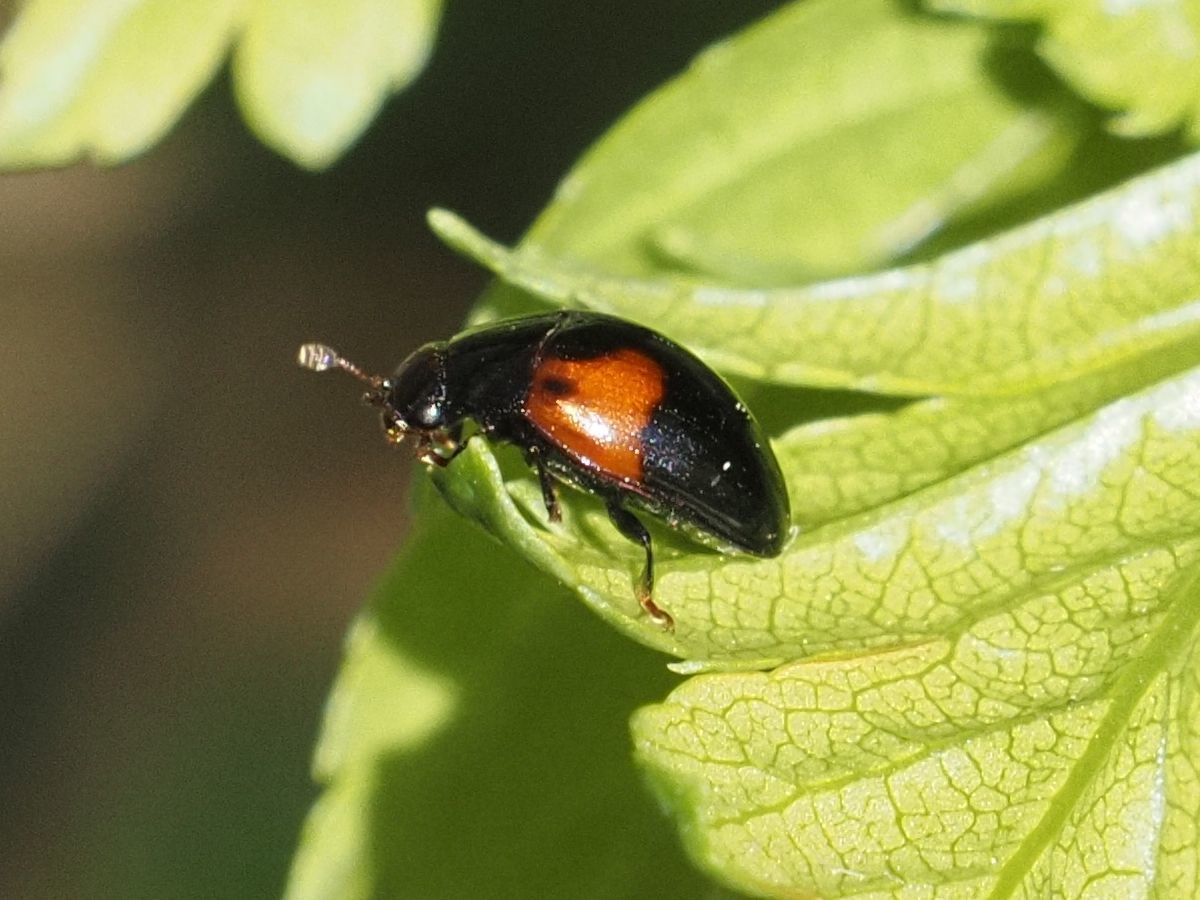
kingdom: Animalia
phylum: Arthropoda
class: Insecta
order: Coleoptera
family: Erotylidae
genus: Tritoma
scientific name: Tritoma bipustulata
